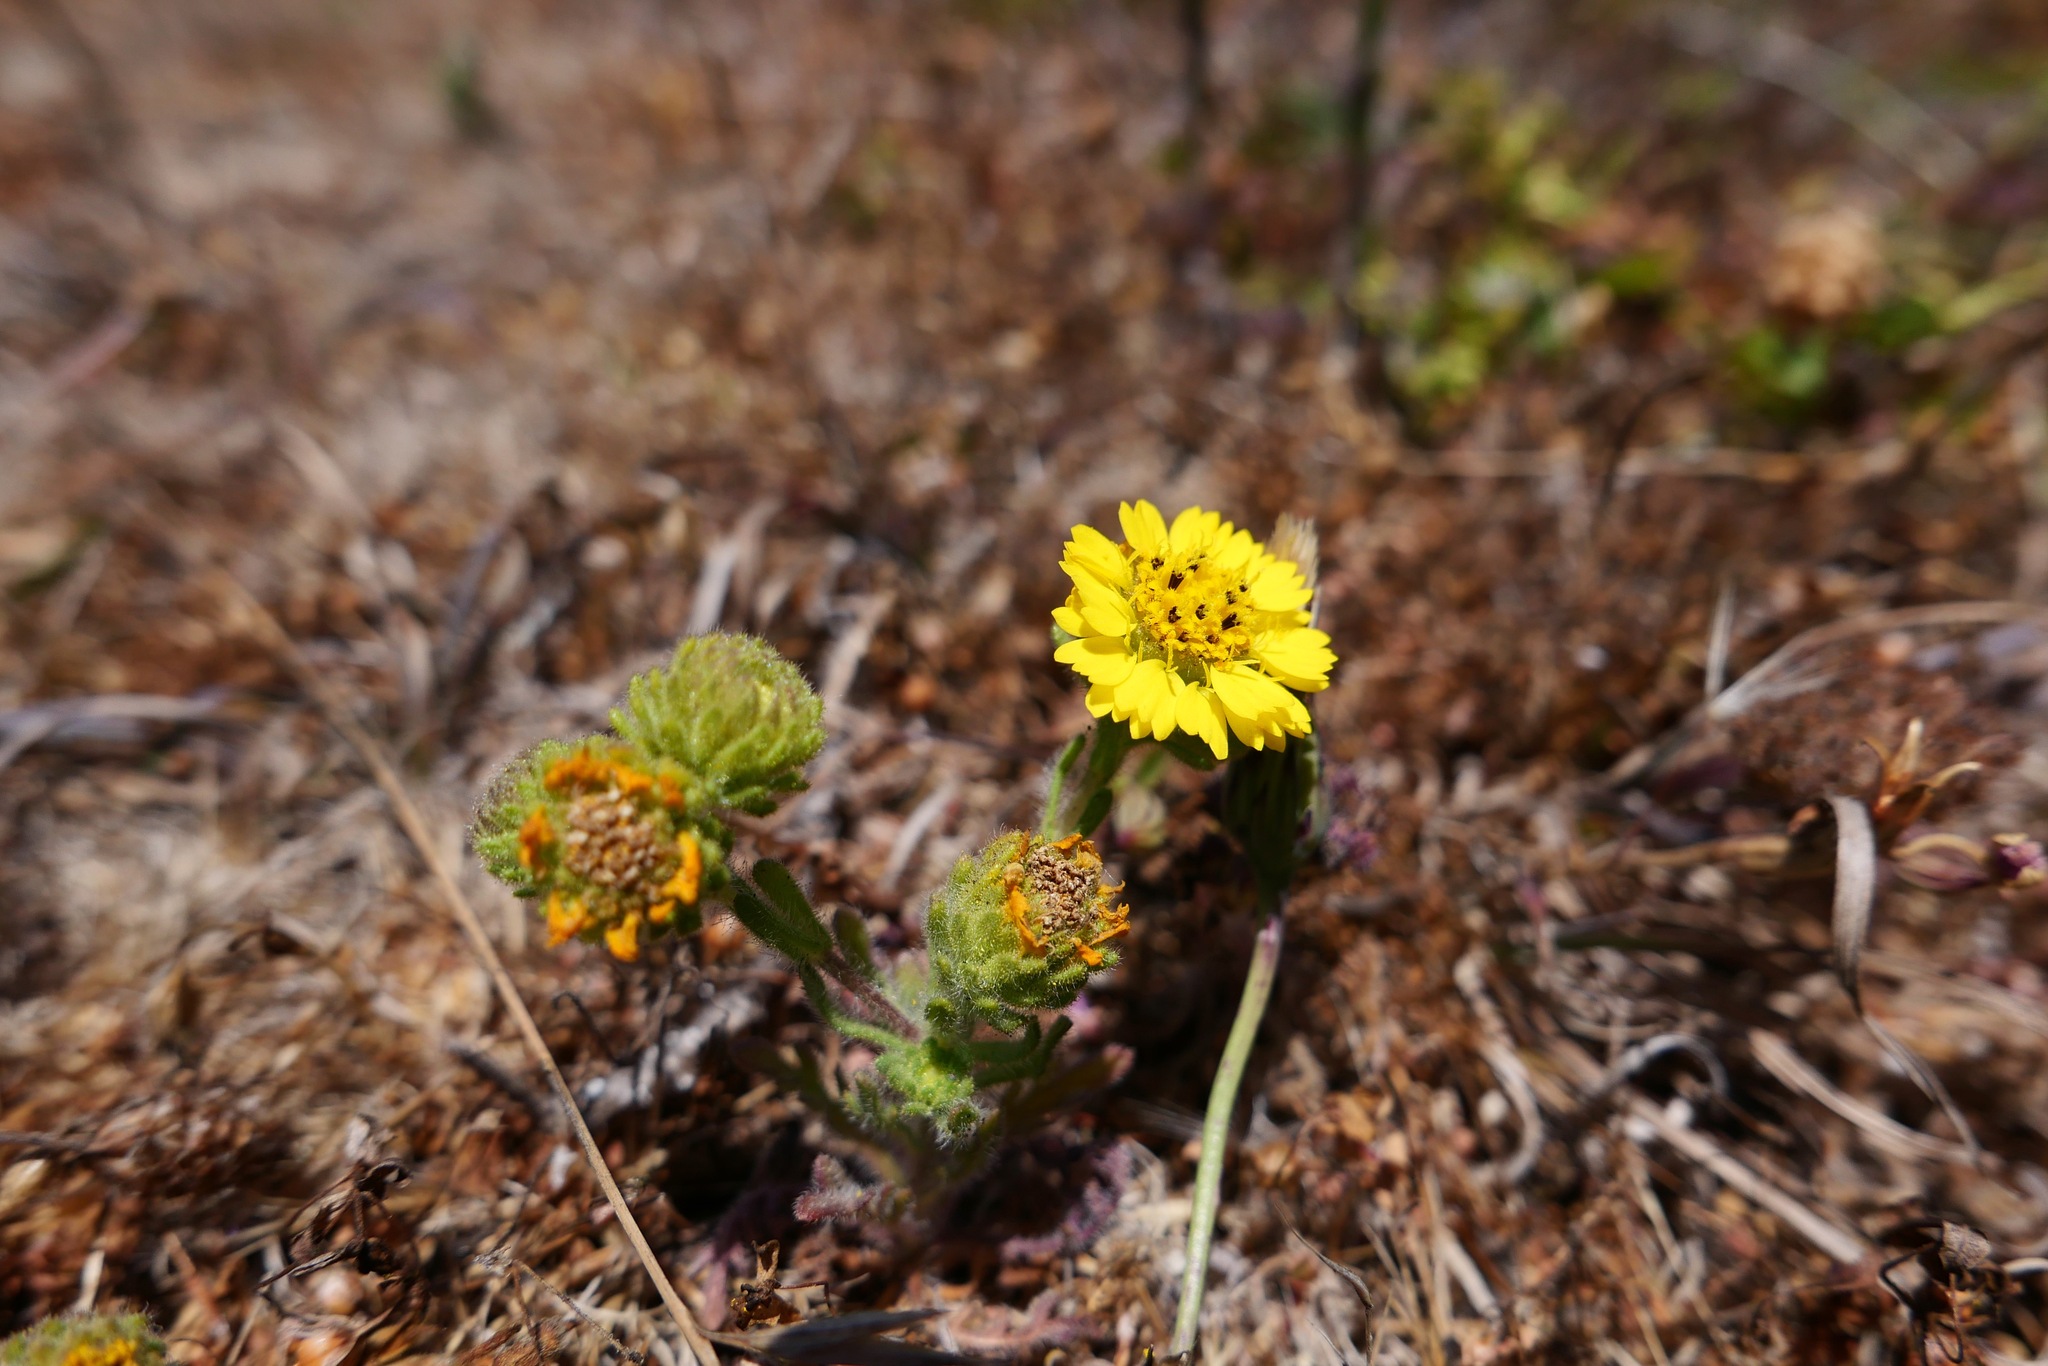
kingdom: Plantae
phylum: Tracheophyta
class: Magnoliopsida
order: Asterales
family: Asteraceae
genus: Deinandra
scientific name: Deinandra corymbosa
